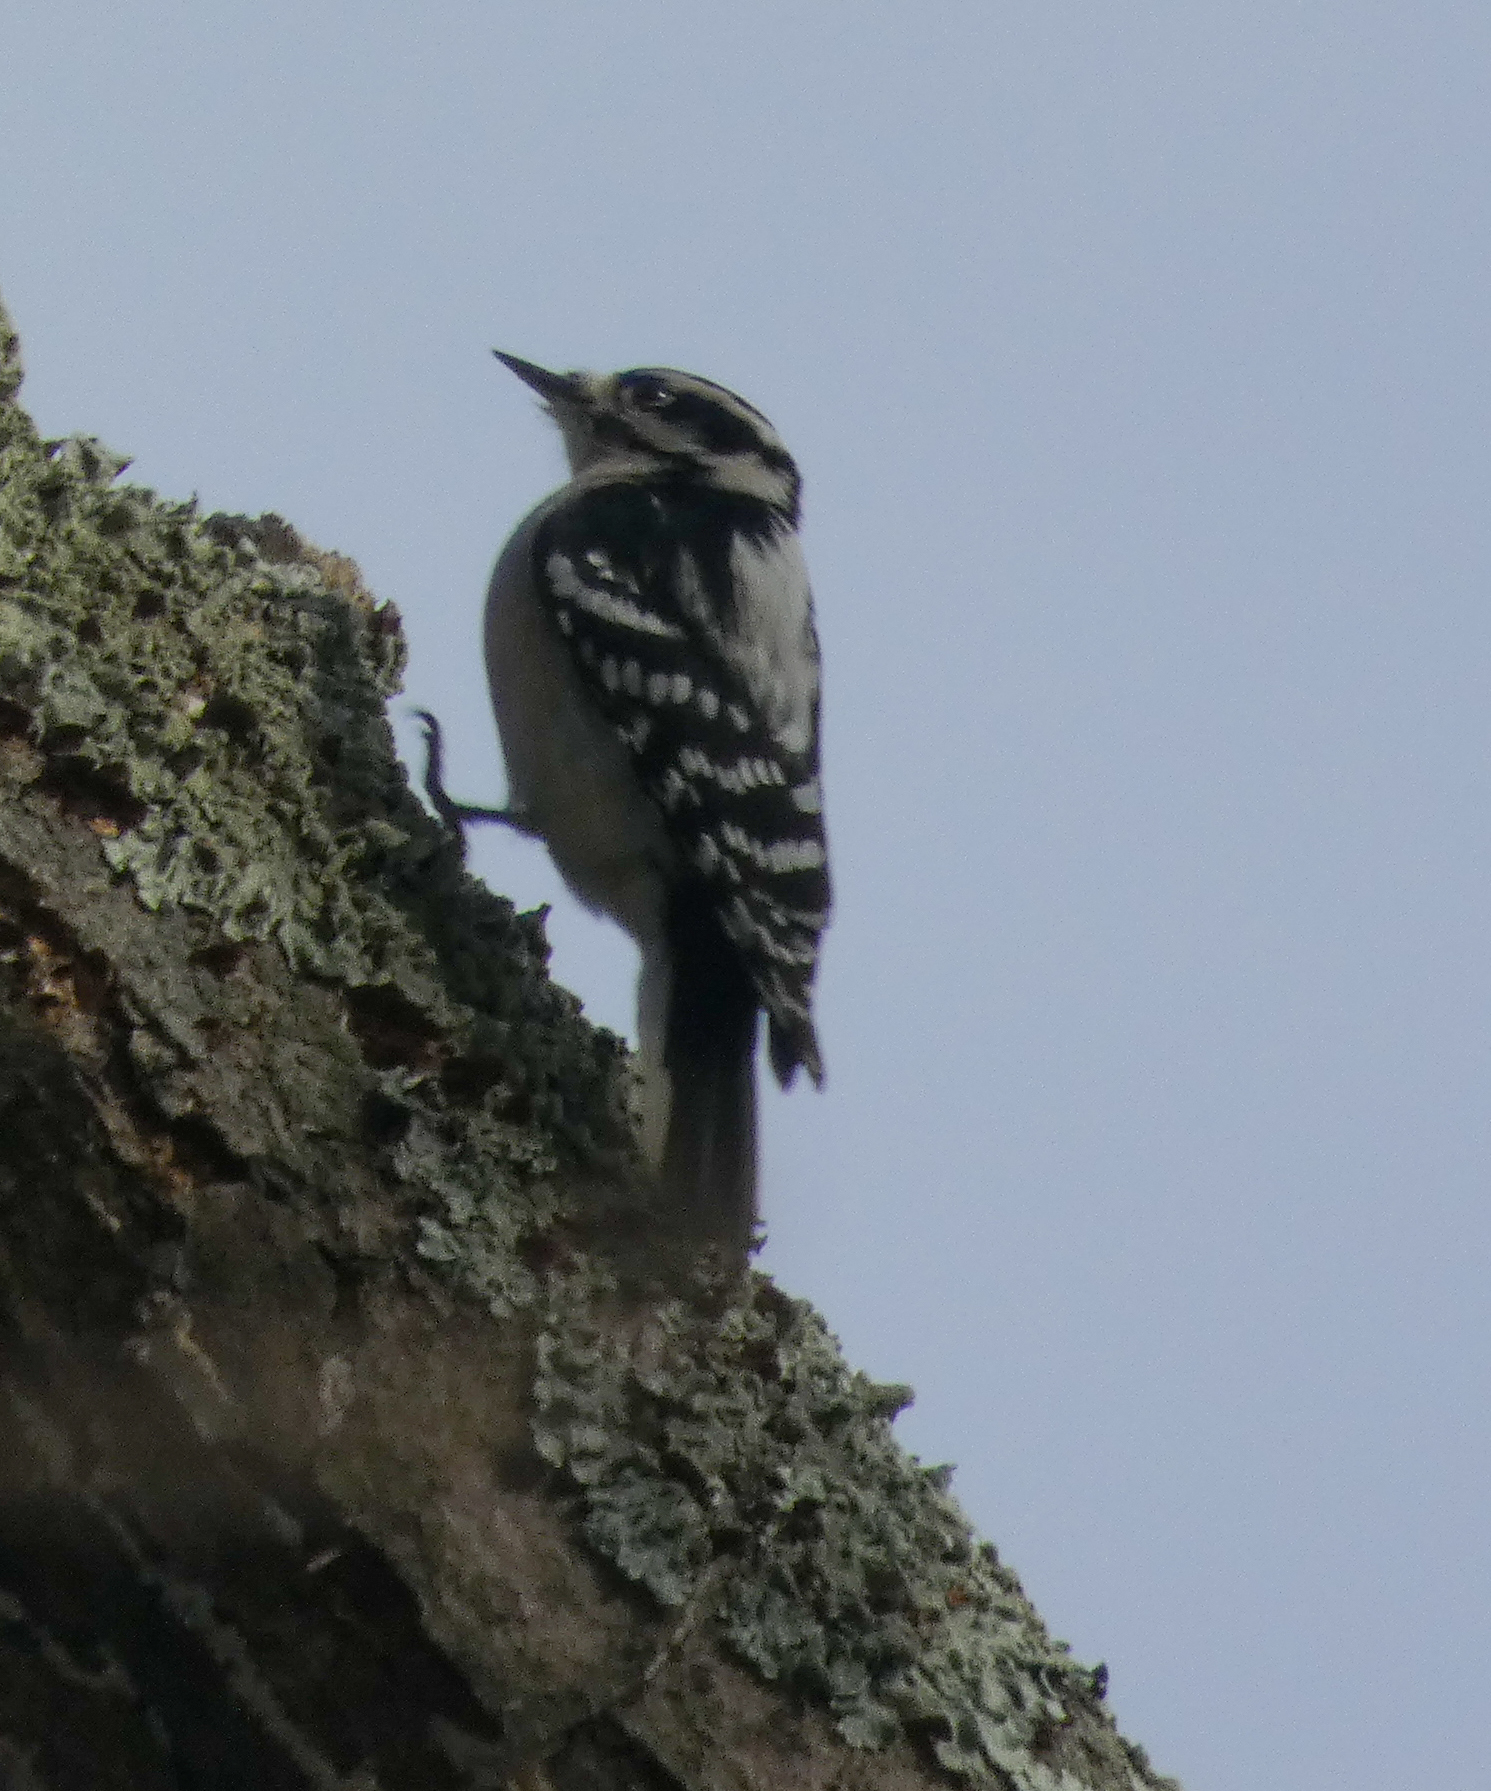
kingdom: Animalia
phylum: Chordata
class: Aves
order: Piciformes
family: Picidae
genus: Dryobates
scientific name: Dryobates pubescens
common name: Downy woodpecker
